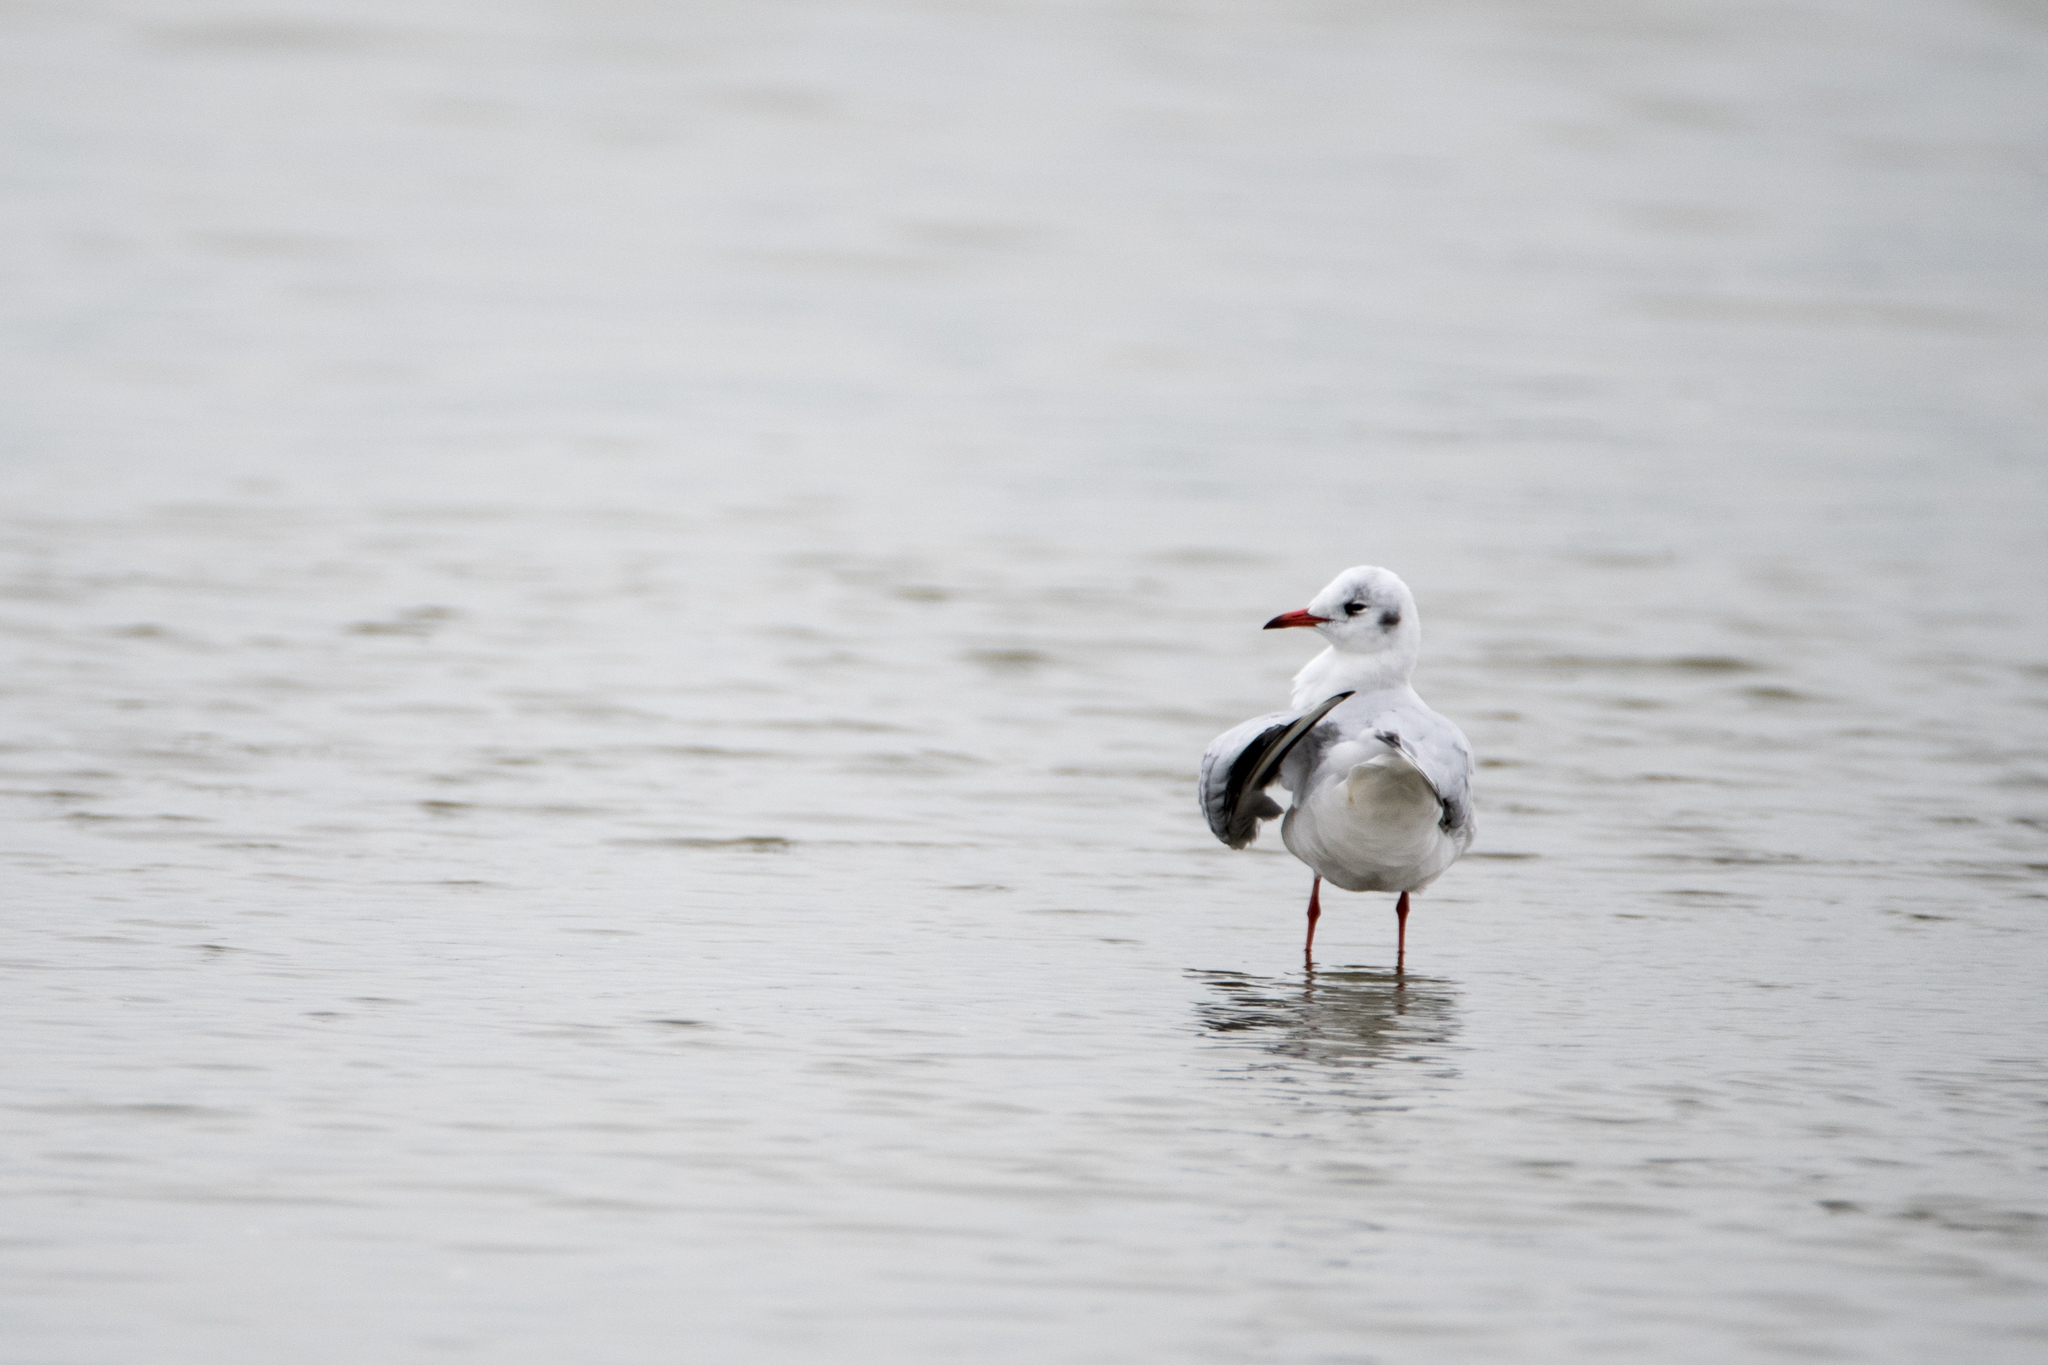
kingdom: Animalia
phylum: Chordata
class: Aves
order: Charadriiformes
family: Laridae
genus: Chroicocephalus
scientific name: Chroicocephalus ridibundus
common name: Black-headed gull
